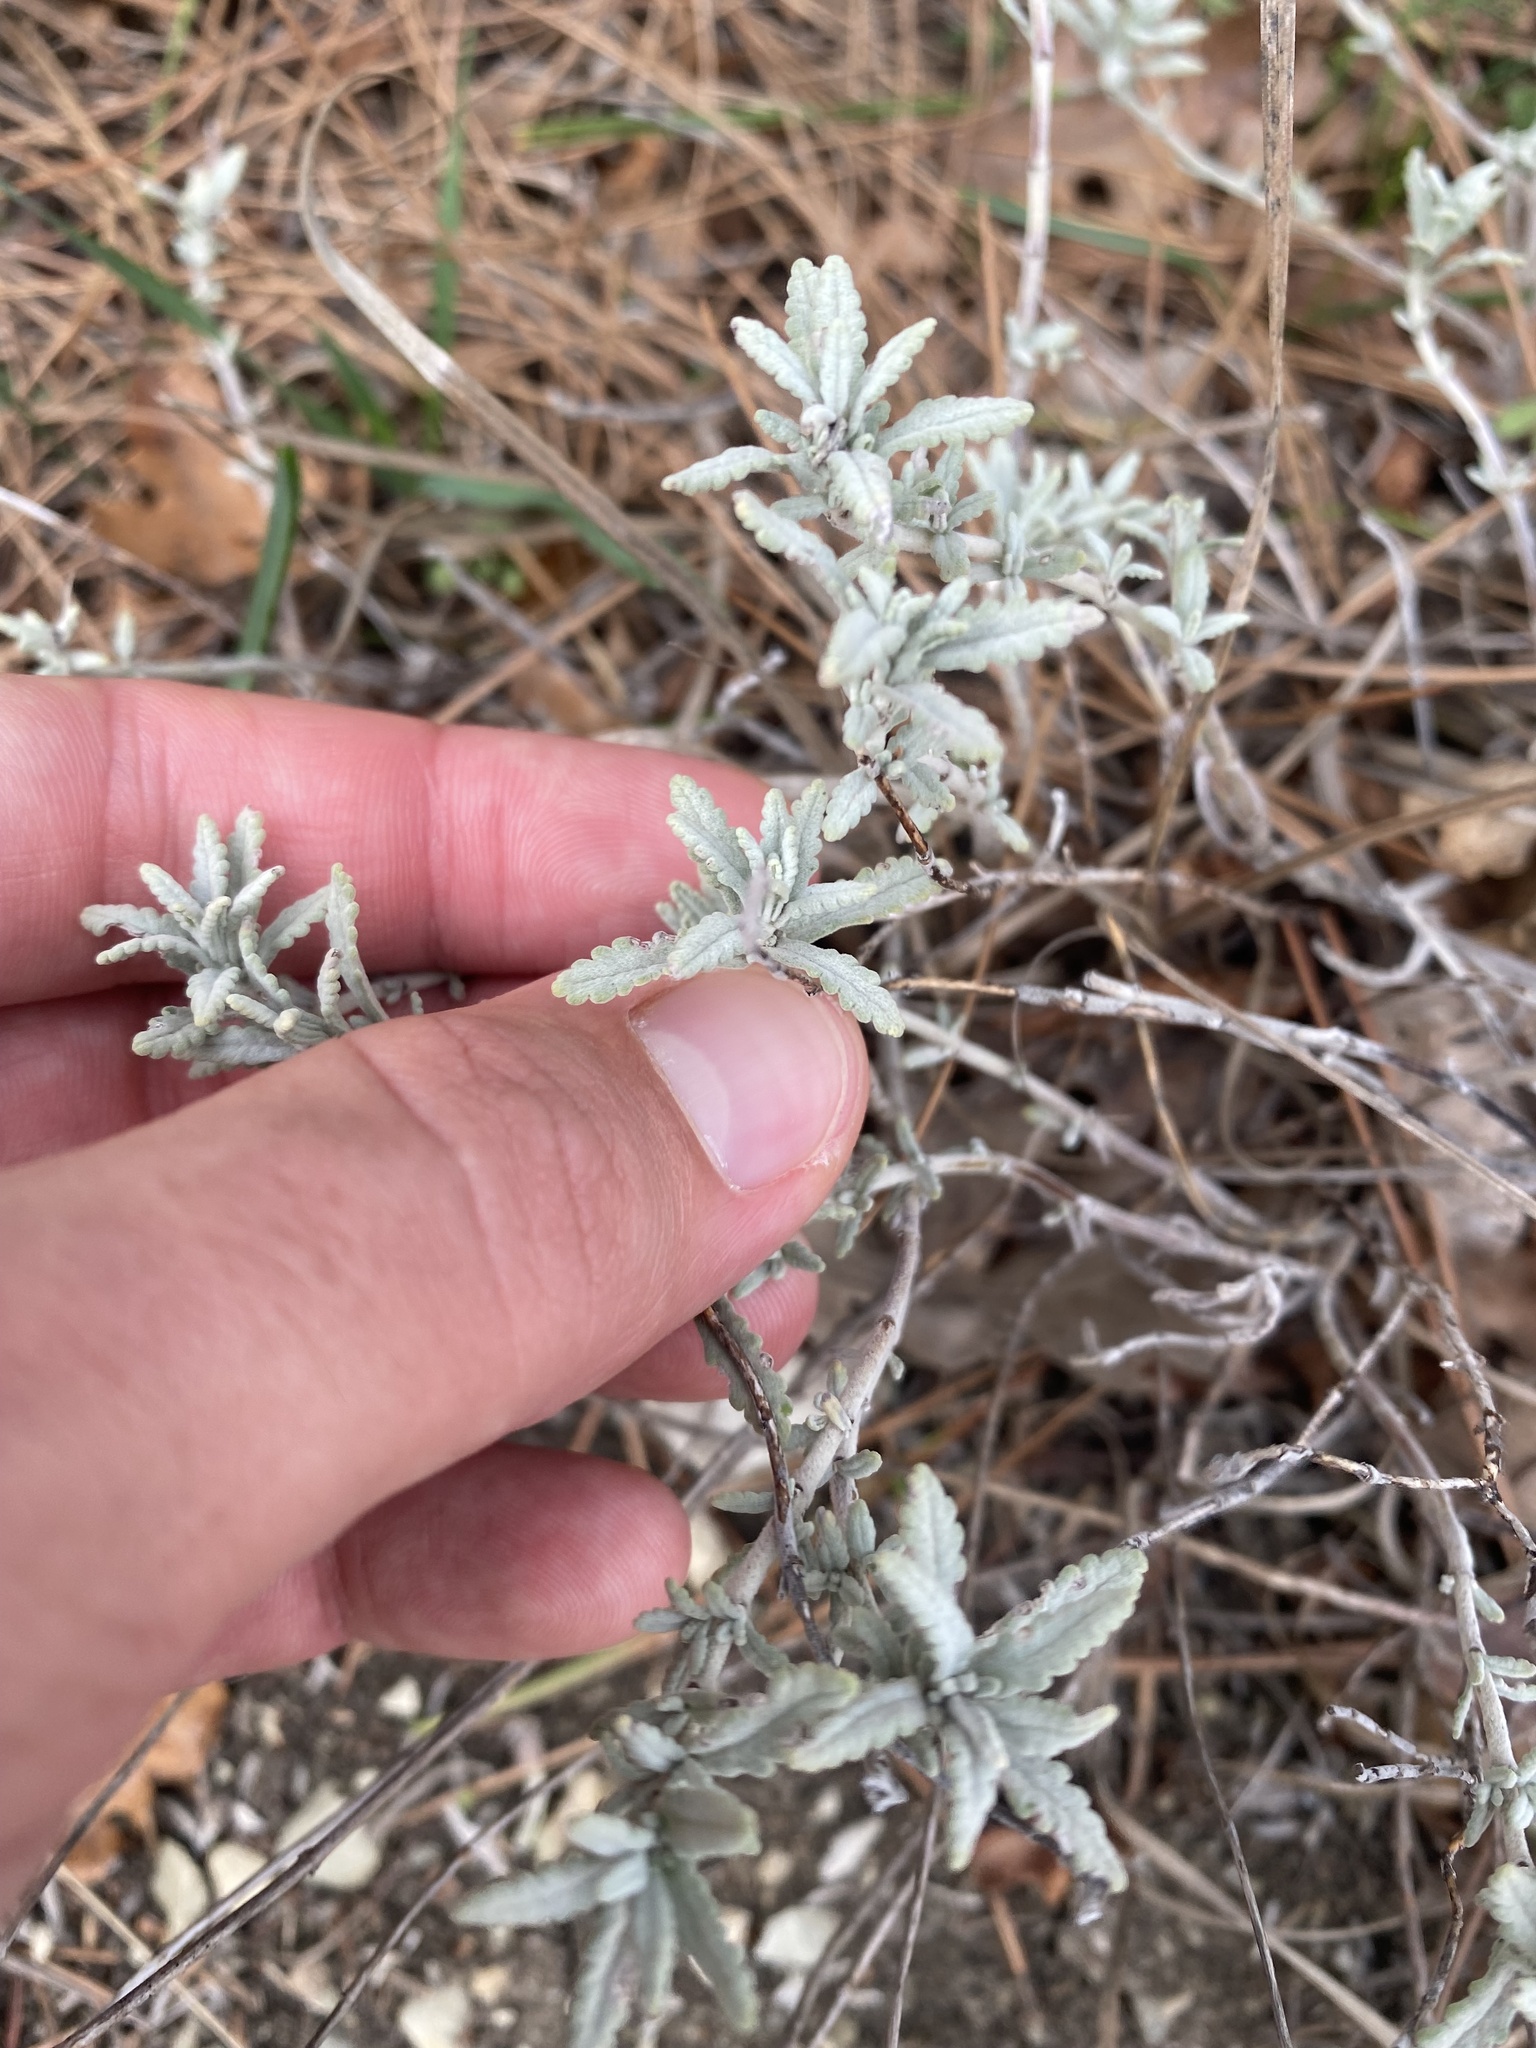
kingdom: Plantae
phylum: Tracheophyta
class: Magnoliopsida
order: Lamiales
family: Lamiaceae
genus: Teucrium
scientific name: Teucrium polium
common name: Poley
